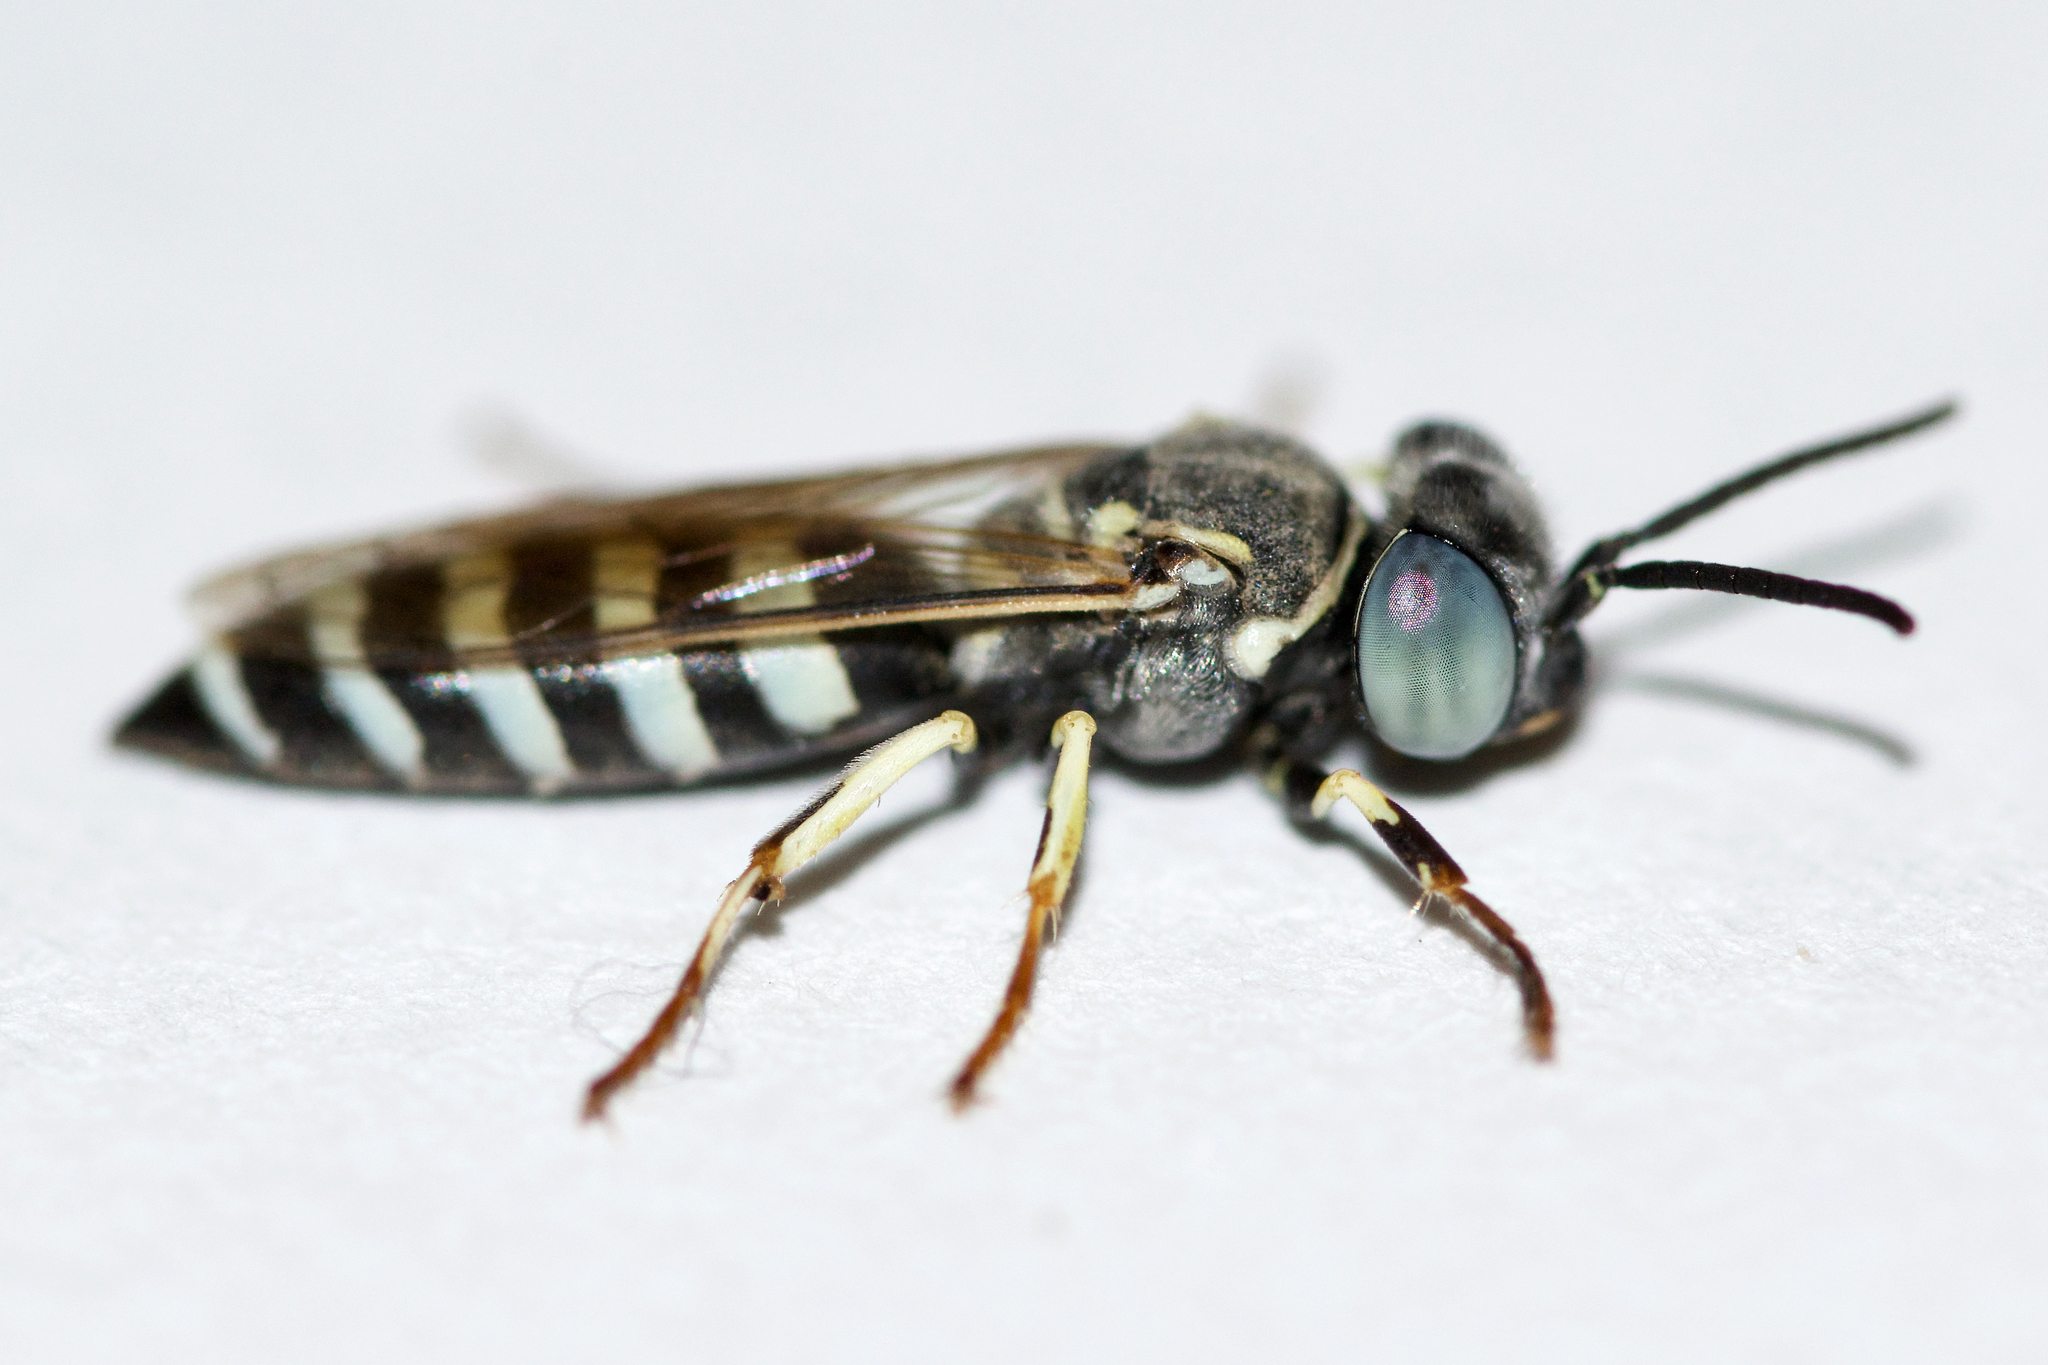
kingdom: Animalia
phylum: Arthropoda
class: Insecta
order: Hymenoptera
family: Crabronidae
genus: Microbembex
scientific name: Microbembex monodonta
